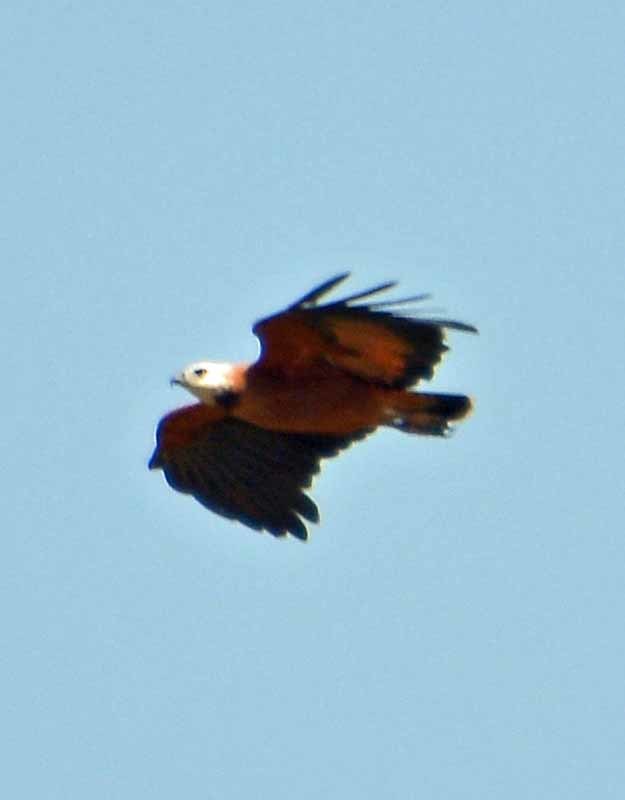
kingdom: Animalia
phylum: Chordata
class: Aves
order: Accipitriformes
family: Accipitridae
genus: Busarellus
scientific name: Busarellus nigricollis
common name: Black-collared hawk
